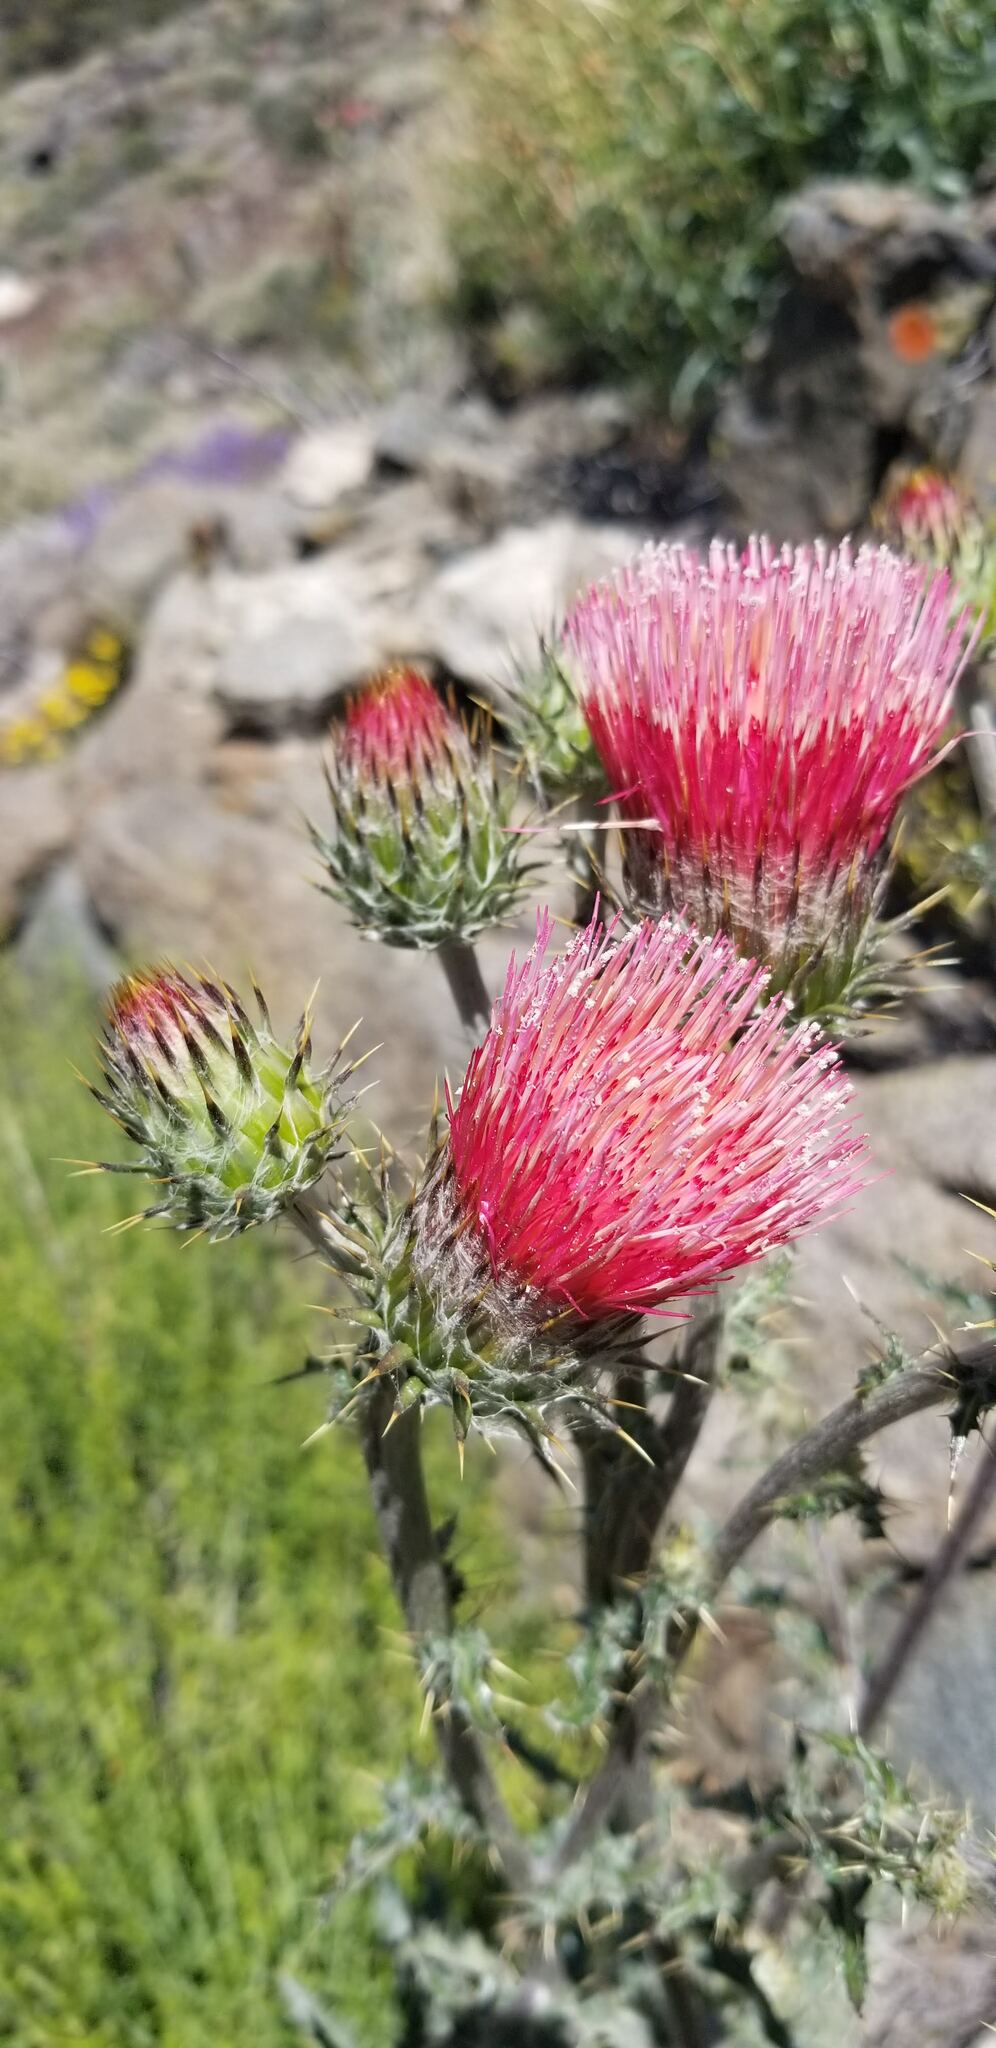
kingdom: Plantae
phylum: Tracheophyta
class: Magnoliopsida
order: Asterales
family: Asteraceae
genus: Cirsium
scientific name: Cirsium occidentale
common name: Western thistle
